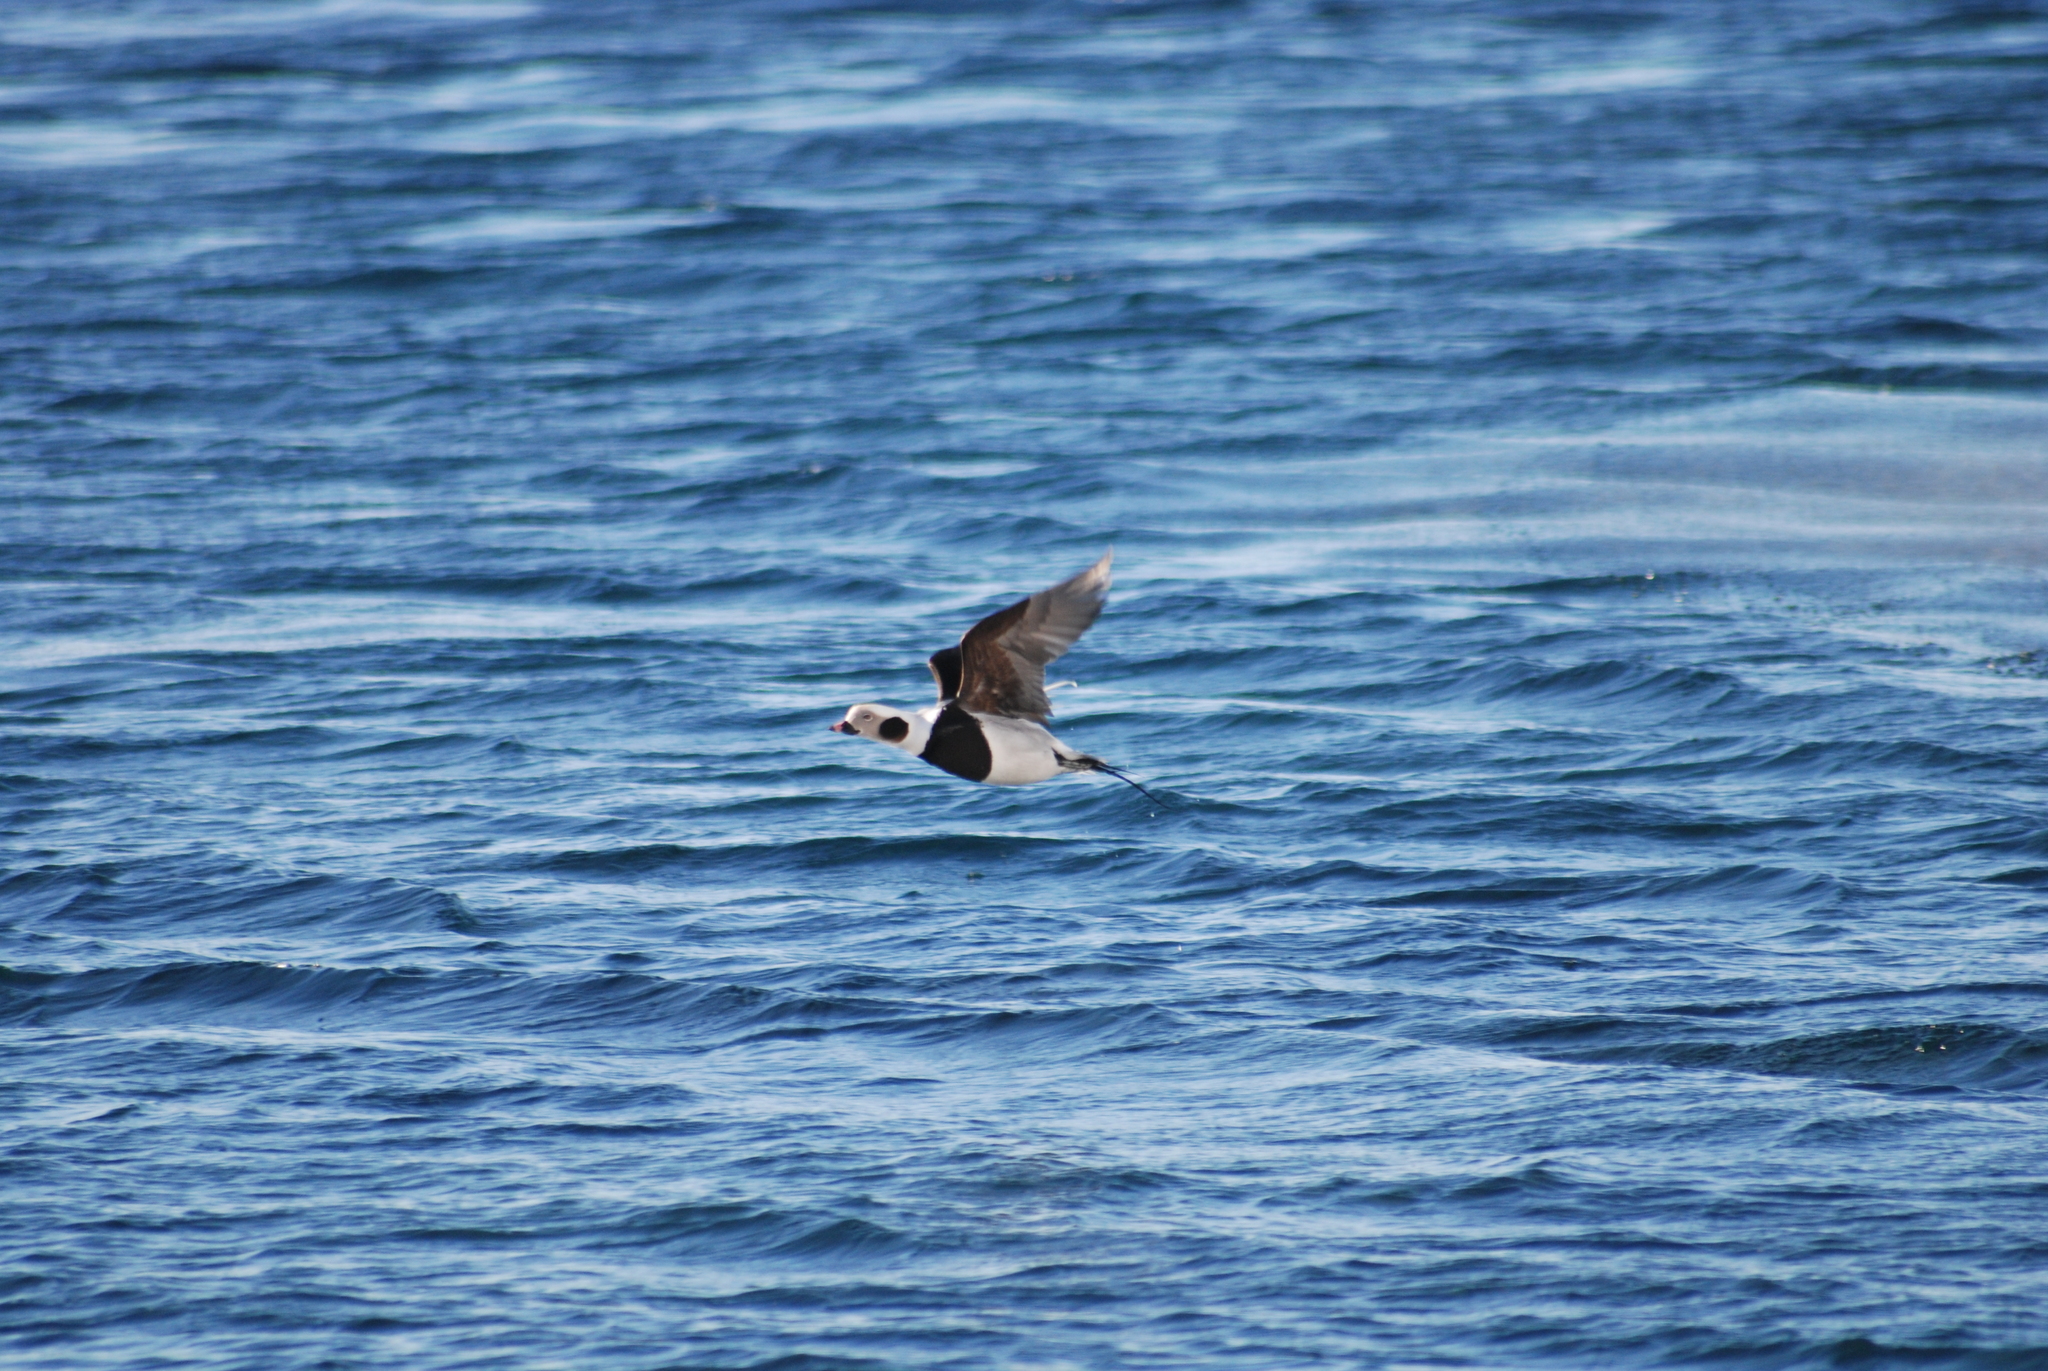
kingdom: Animalia
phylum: Chordata
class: Aves
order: Anseriformes
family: Anatidae
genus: Clangula
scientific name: Clangula hyemalis
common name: Long-tailed duck
